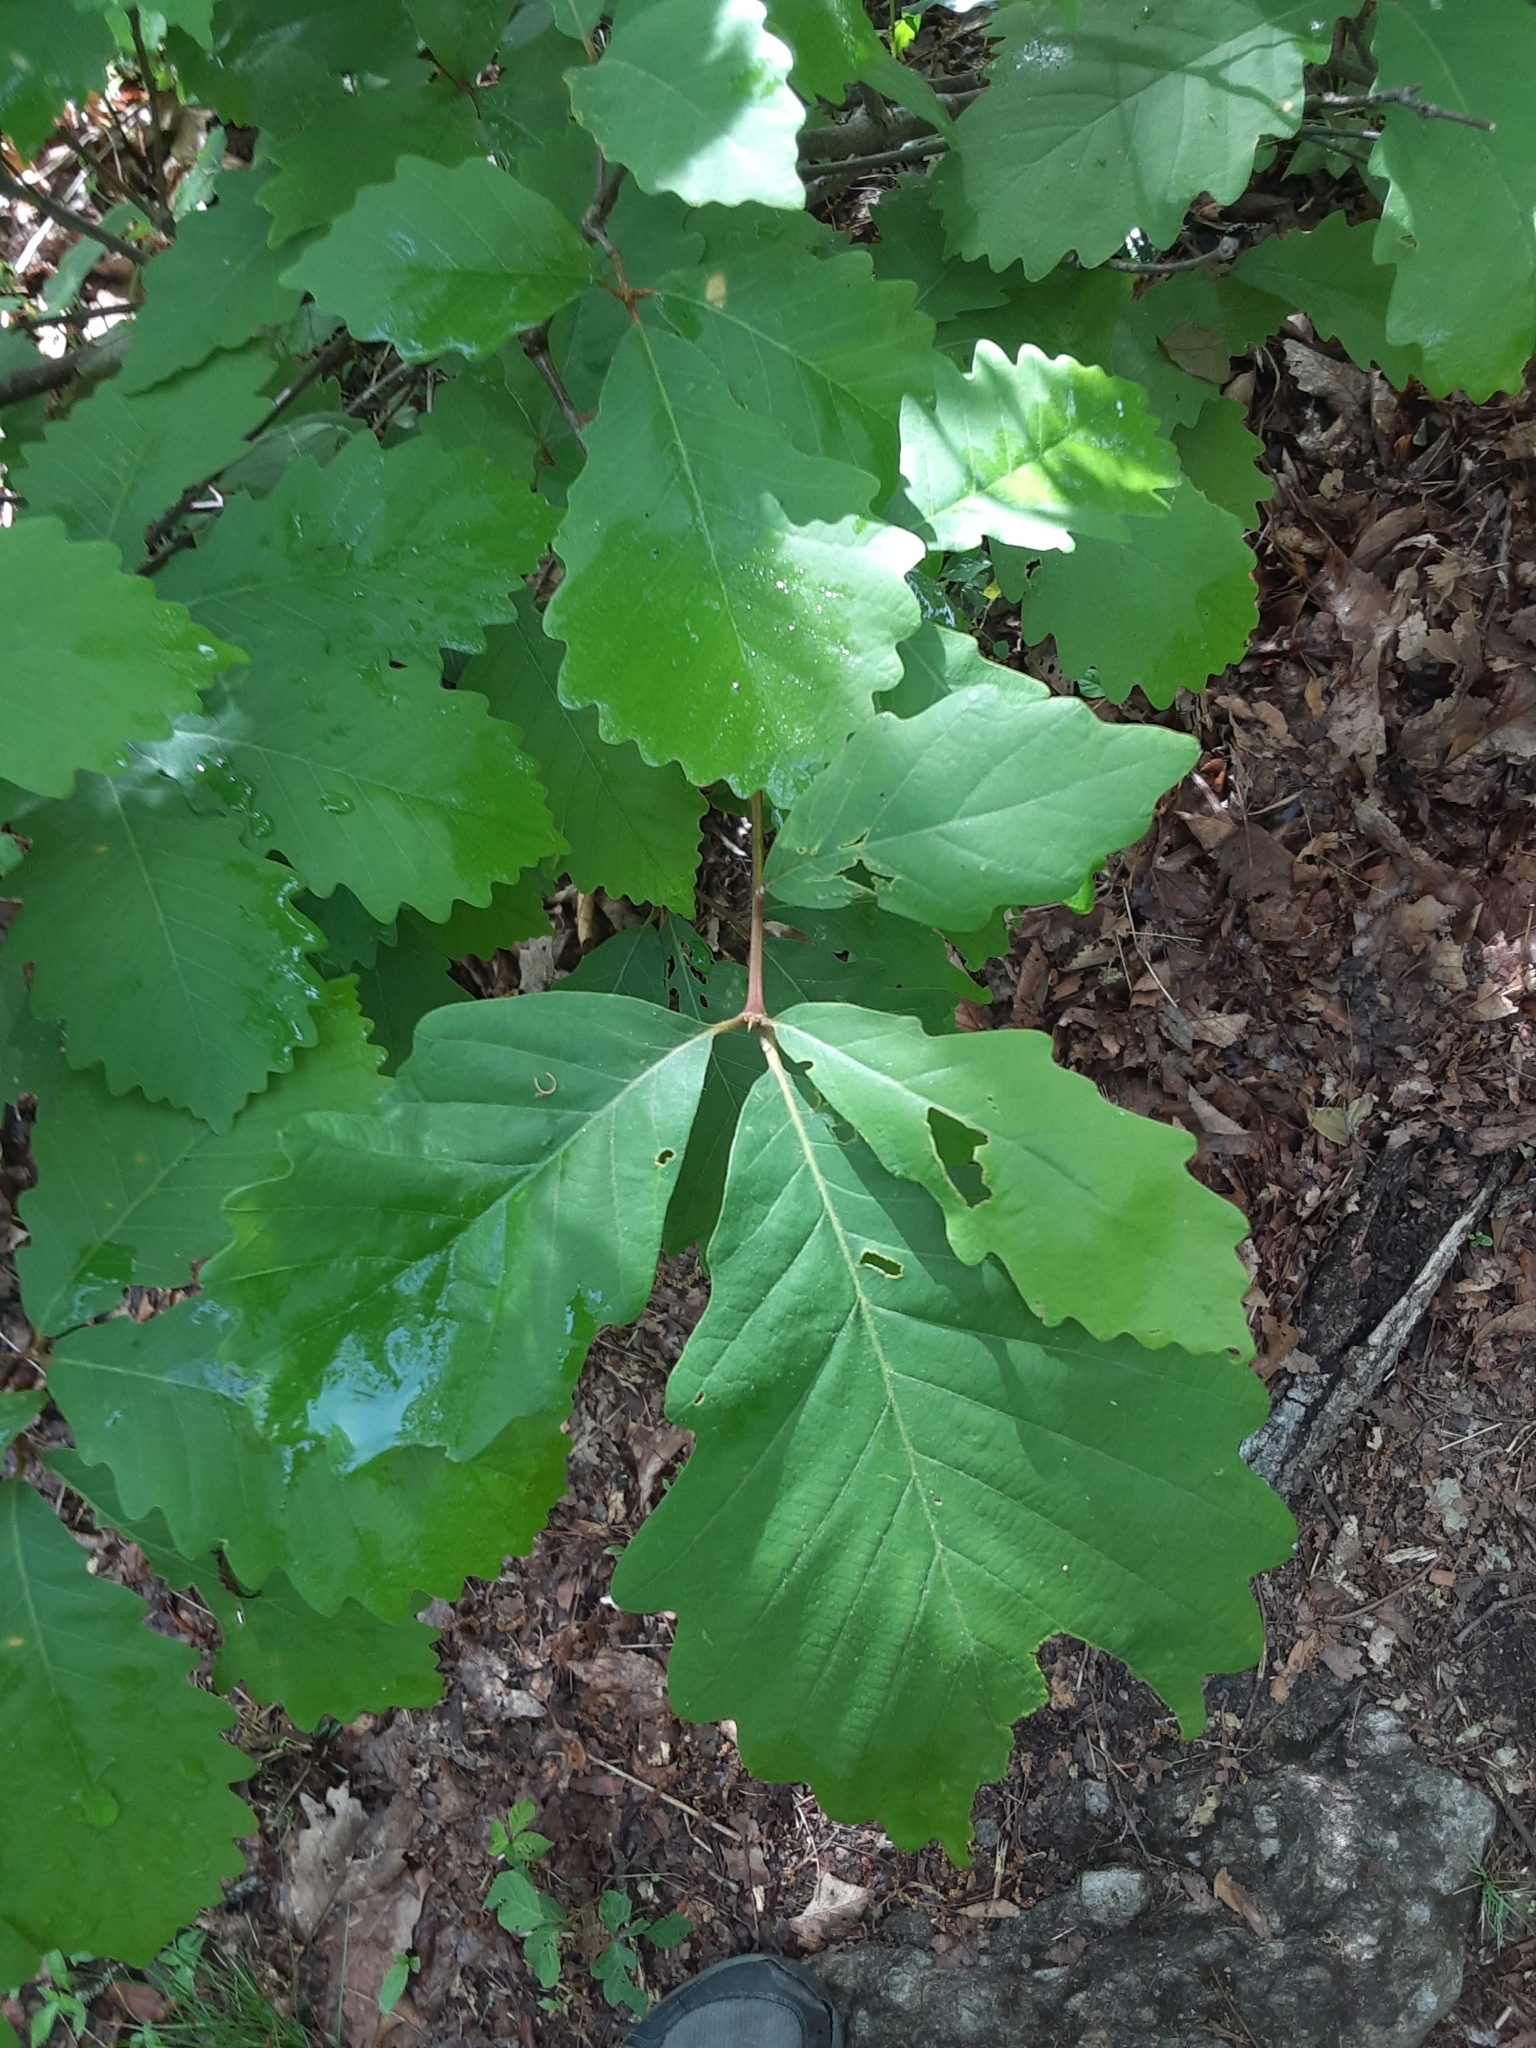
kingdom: Plantae
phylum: Tracheophyta
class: Magnoliopsida
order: Fagales
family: Fagaceae
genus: Quercus
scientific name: Quercus montana
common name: Chestnut oak
